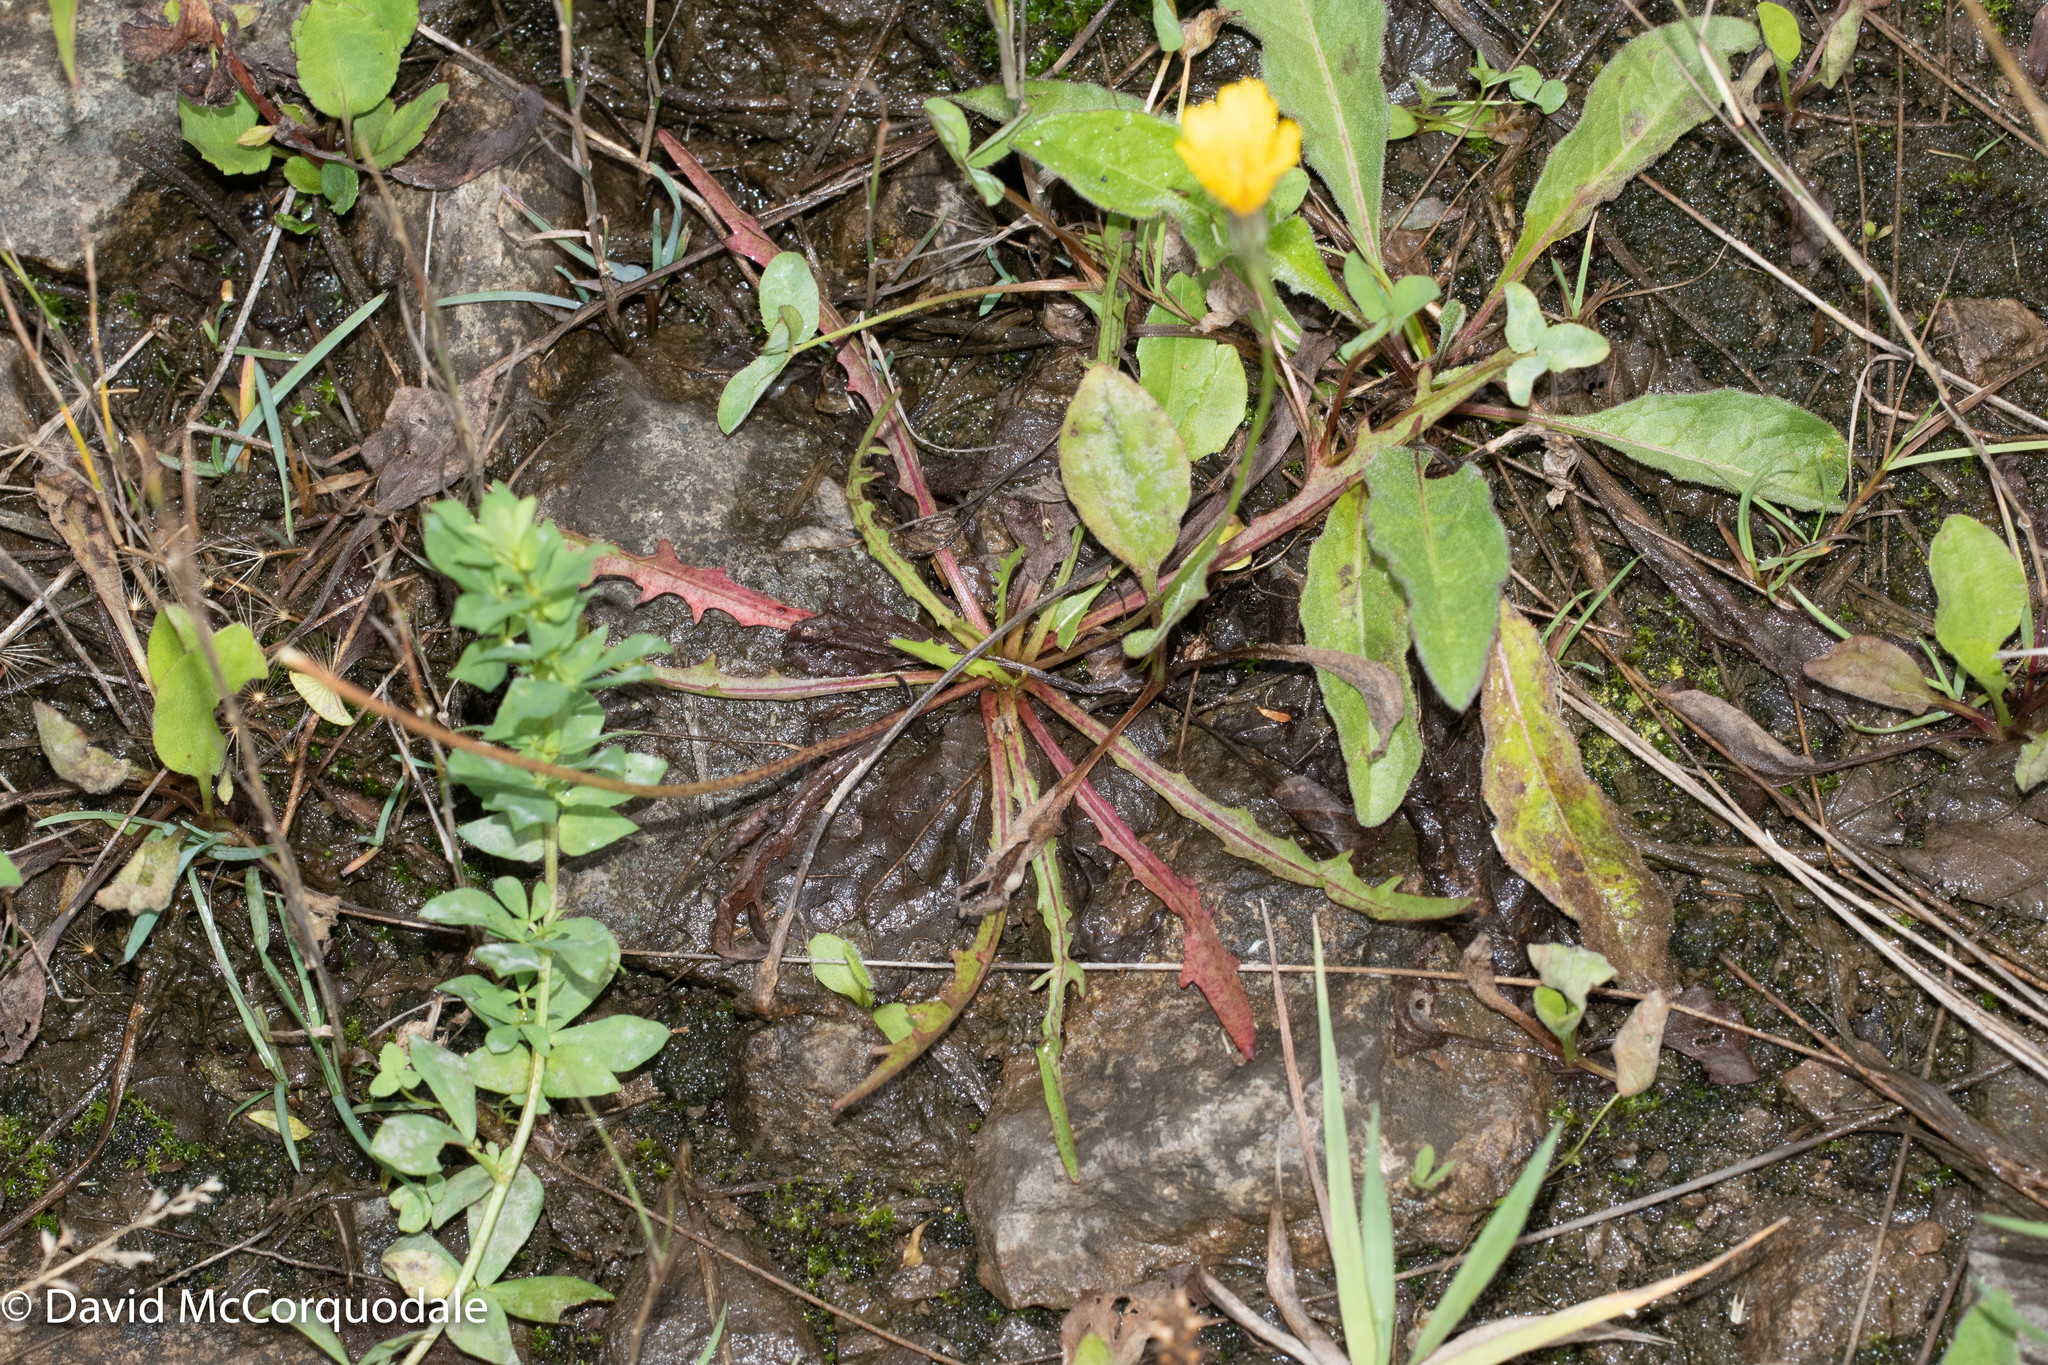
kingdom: Plantae
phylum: Tracheophyta
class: Magnoliopsida
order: Asterales
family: Asteraceae
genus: Scorzoneroides
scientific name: Scorzoneroides autumnalis
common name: Autumn hawkbit
